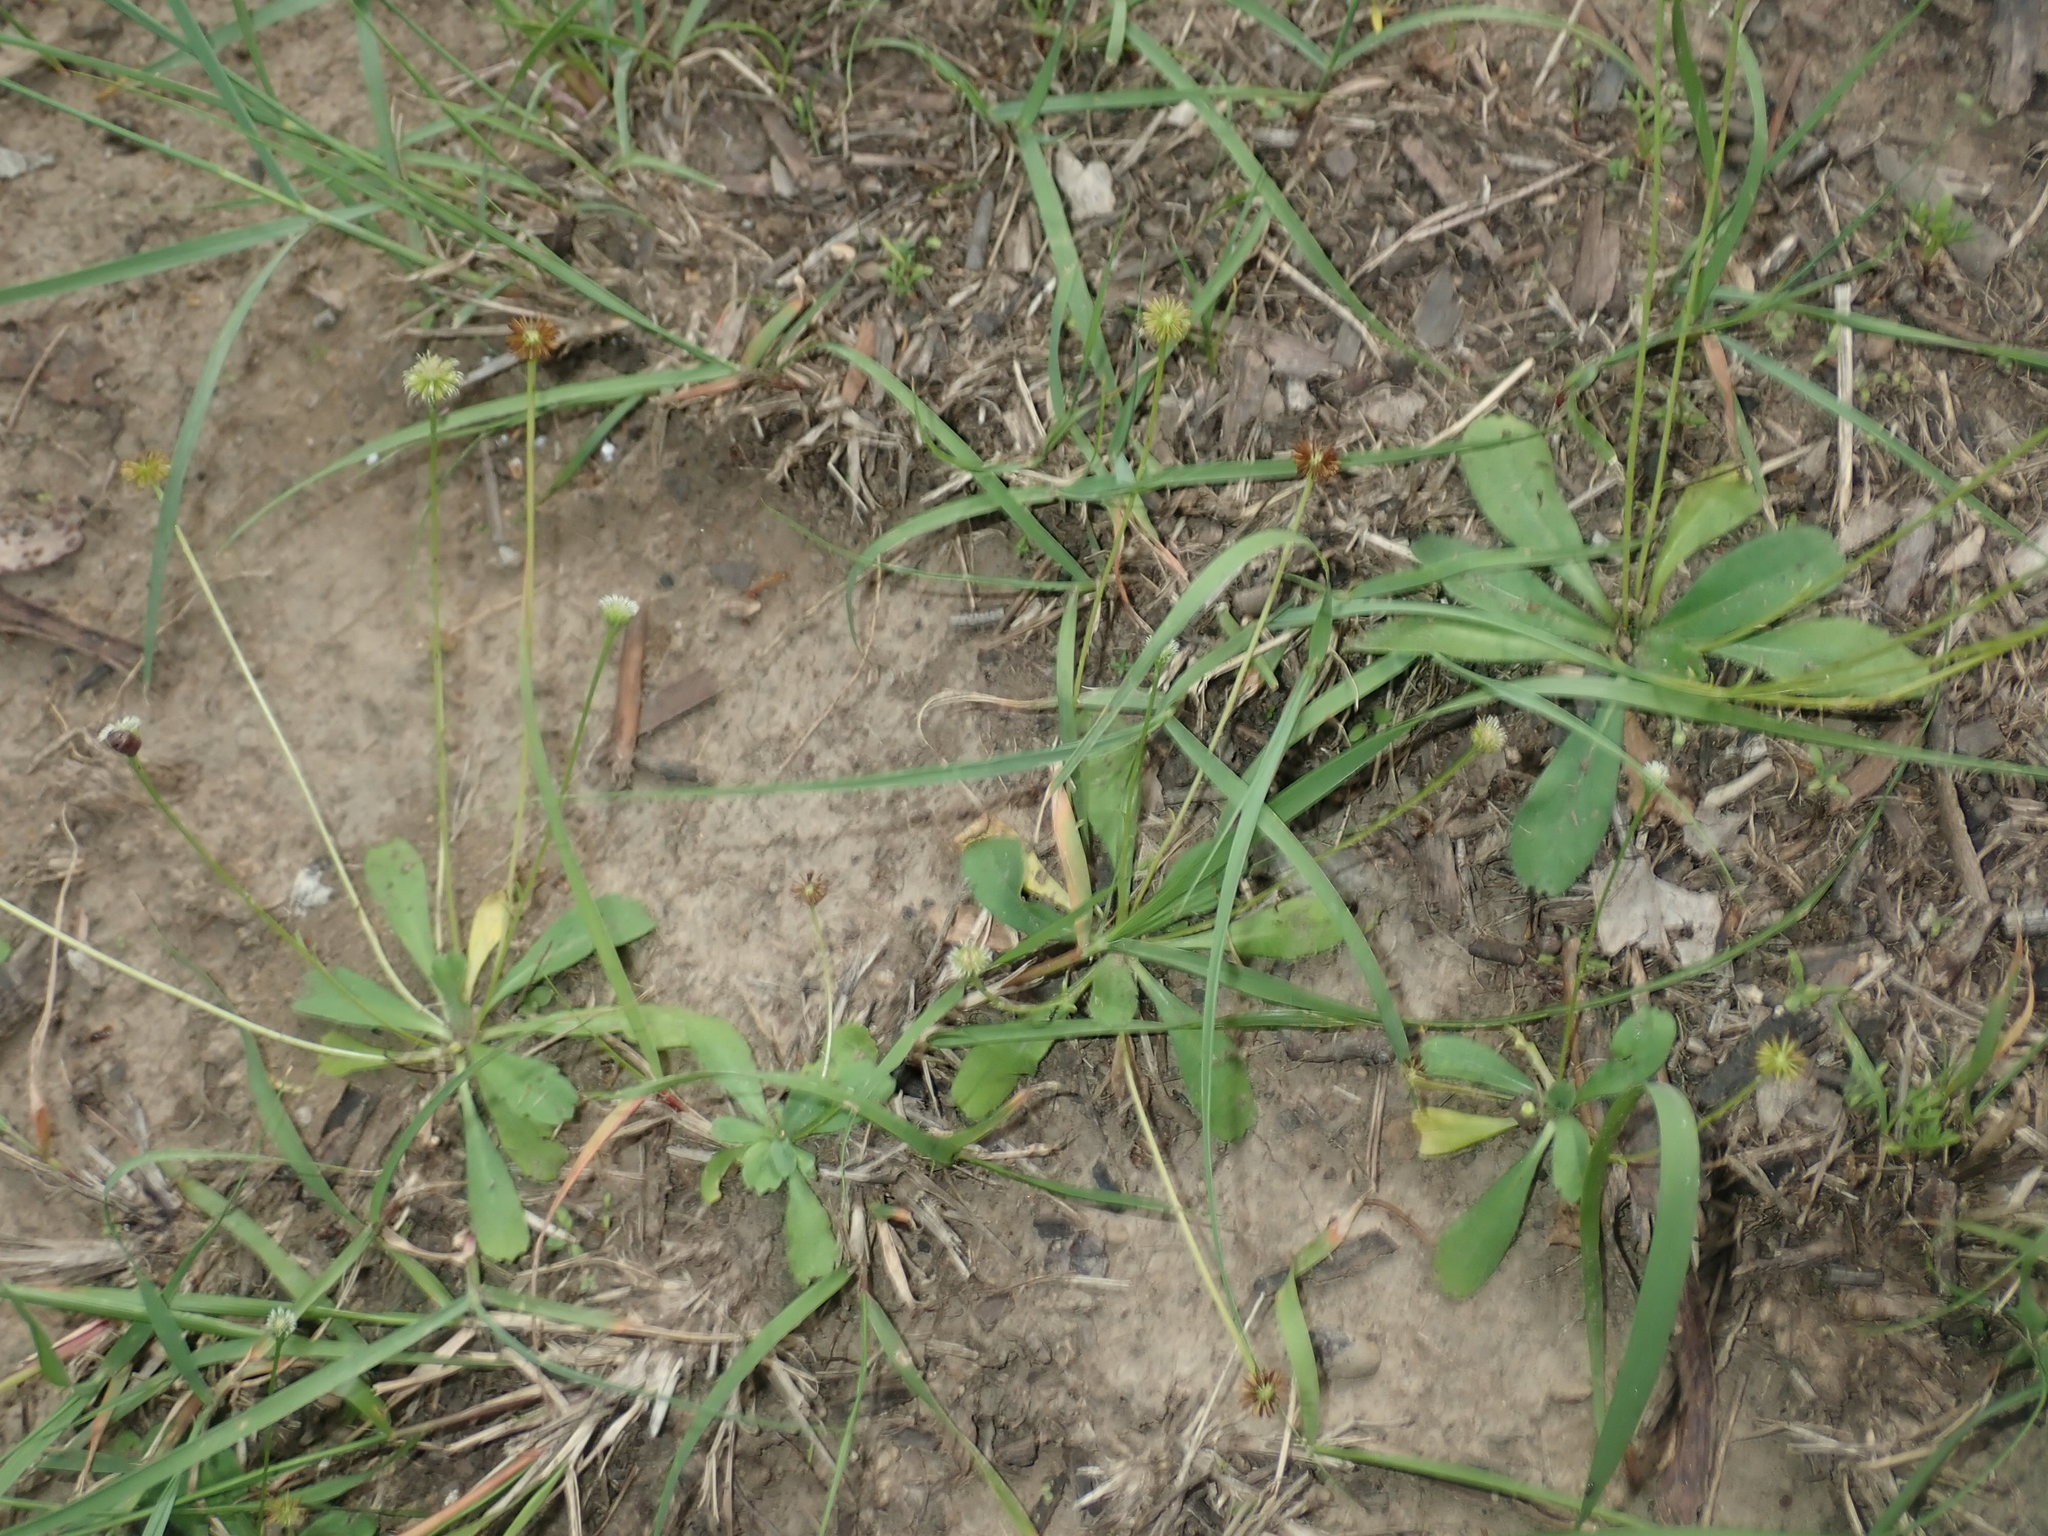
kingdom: Plantae
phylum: Tracheophyta
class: Magnoliopsida
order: Asterales
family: Asteraceae
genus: Solenogyne
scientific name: Solenogyne bellioides
